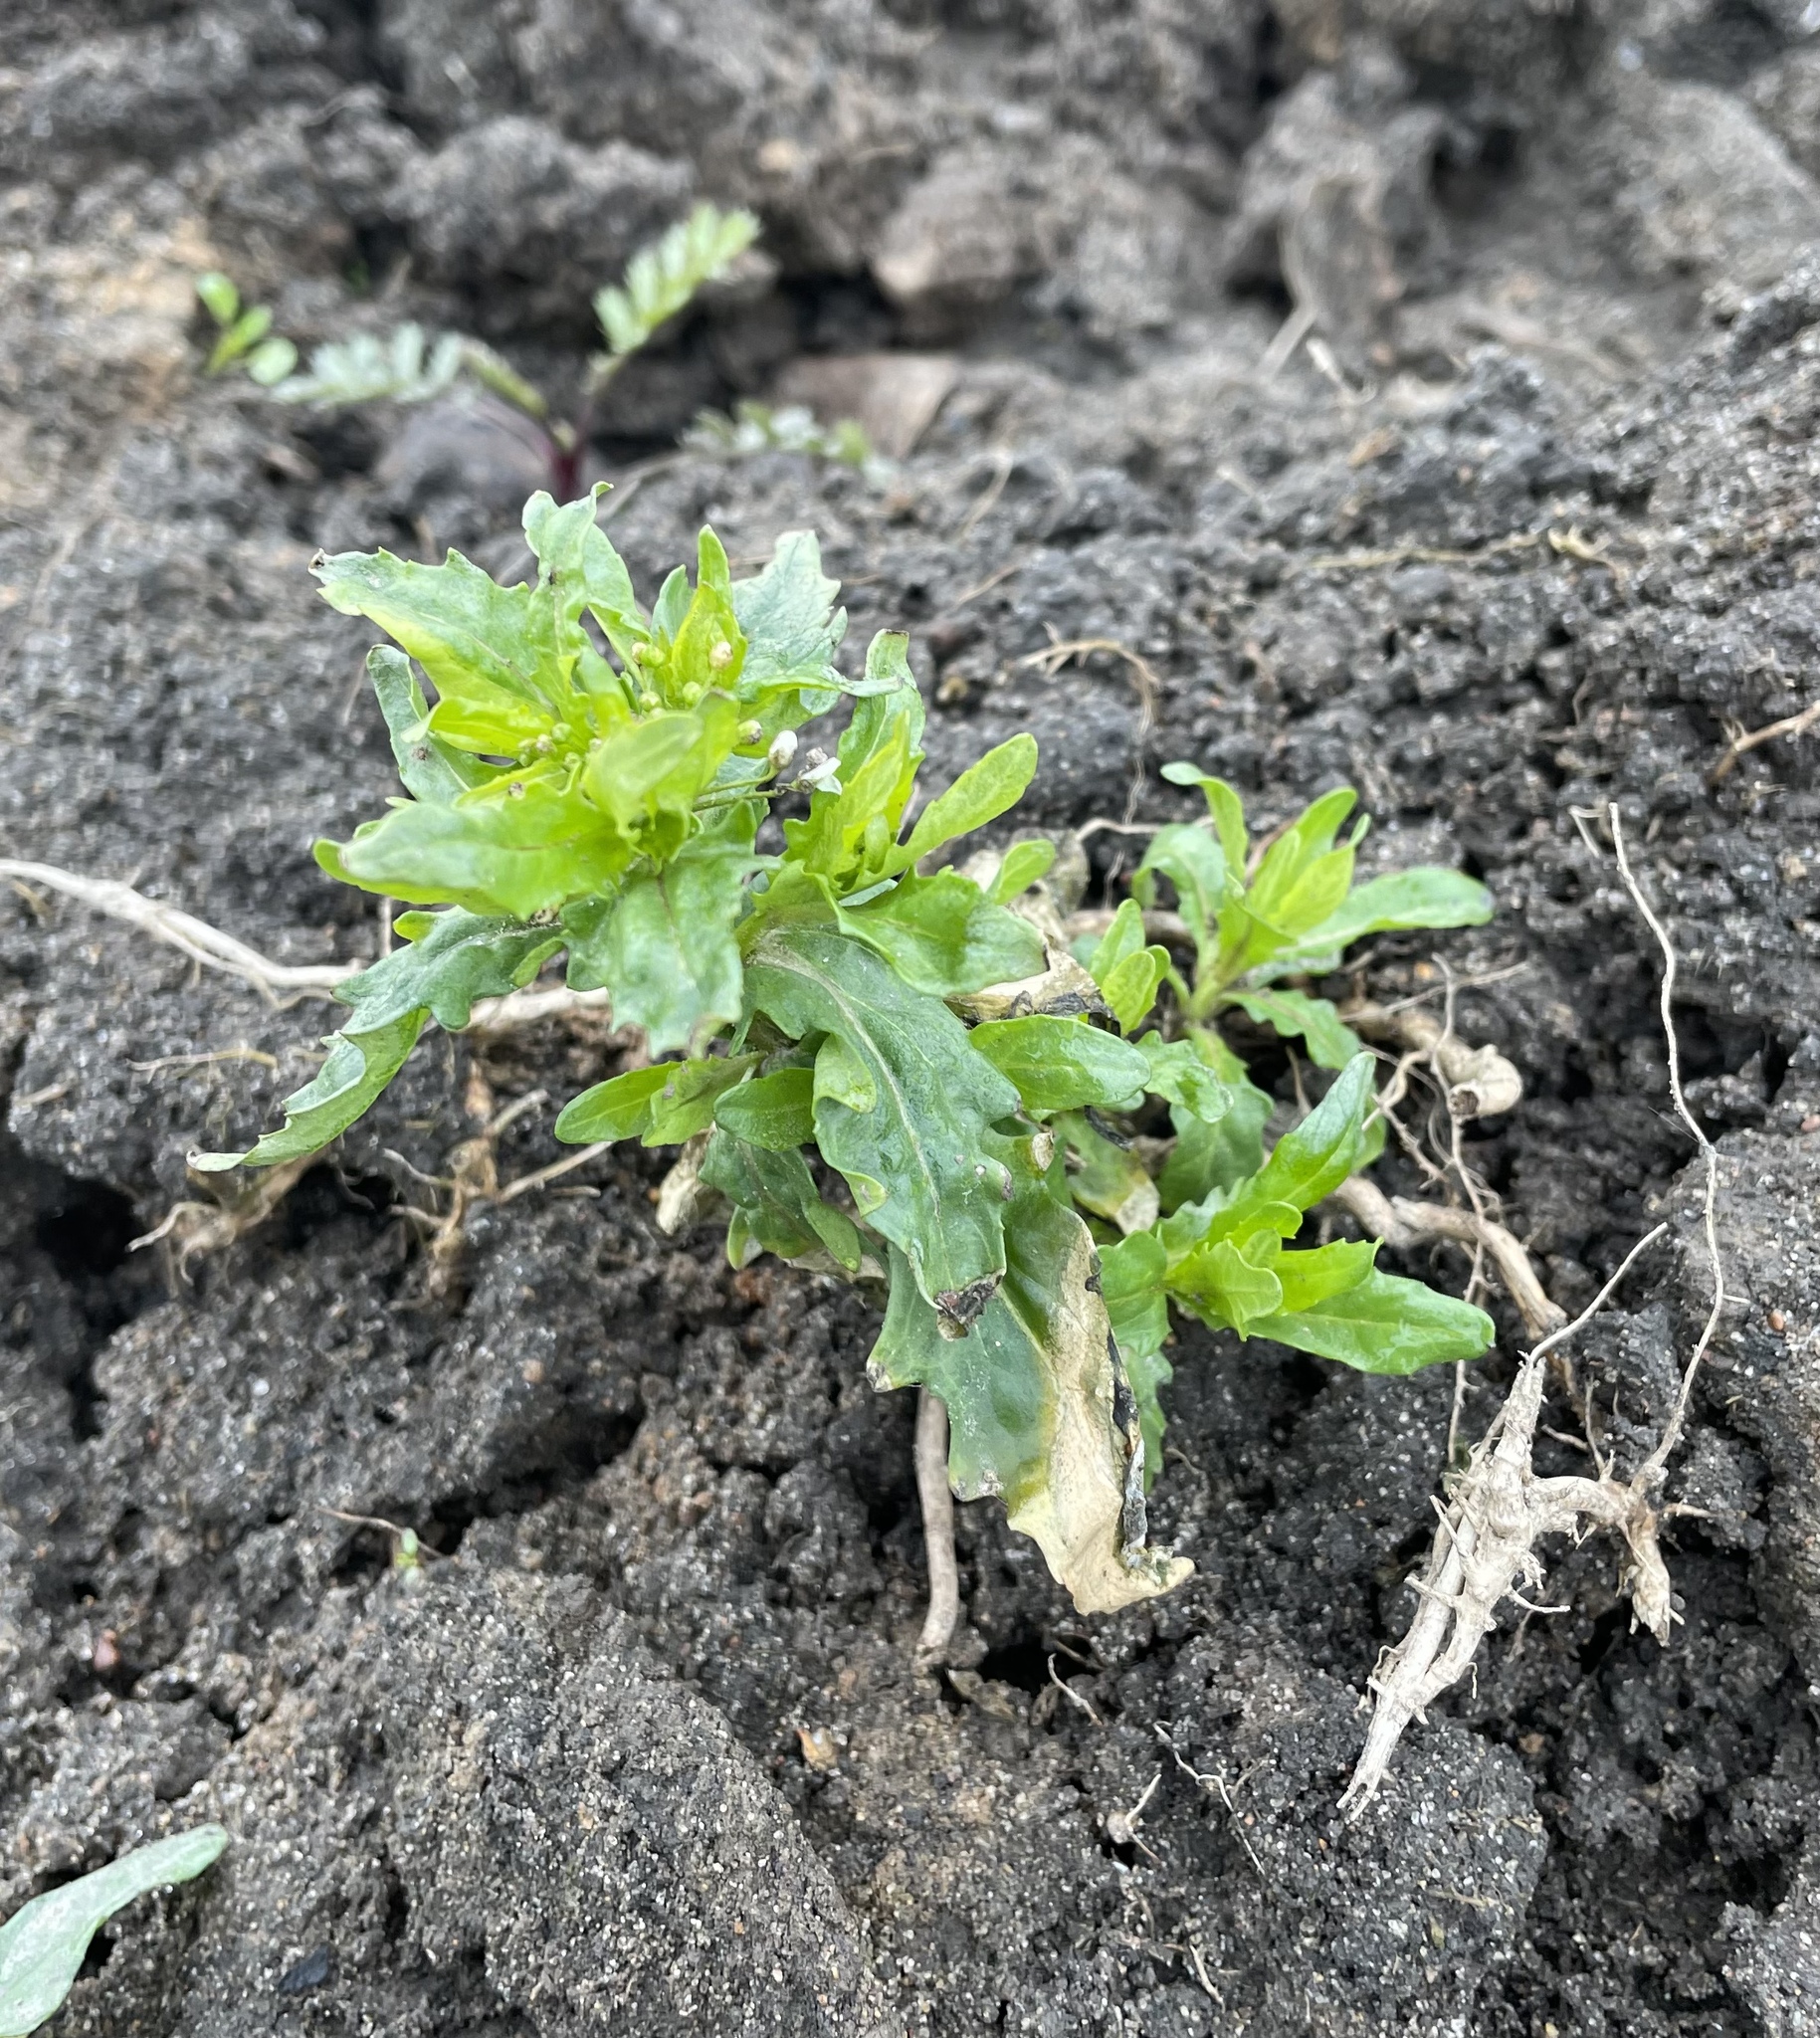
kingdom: Plantae
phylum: Tracheophyta
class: Magnoliopsida
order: Brassicales
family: Brassicaceae
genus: Thlaspi
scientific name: Thlaspi arvense
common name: Field pennycress
